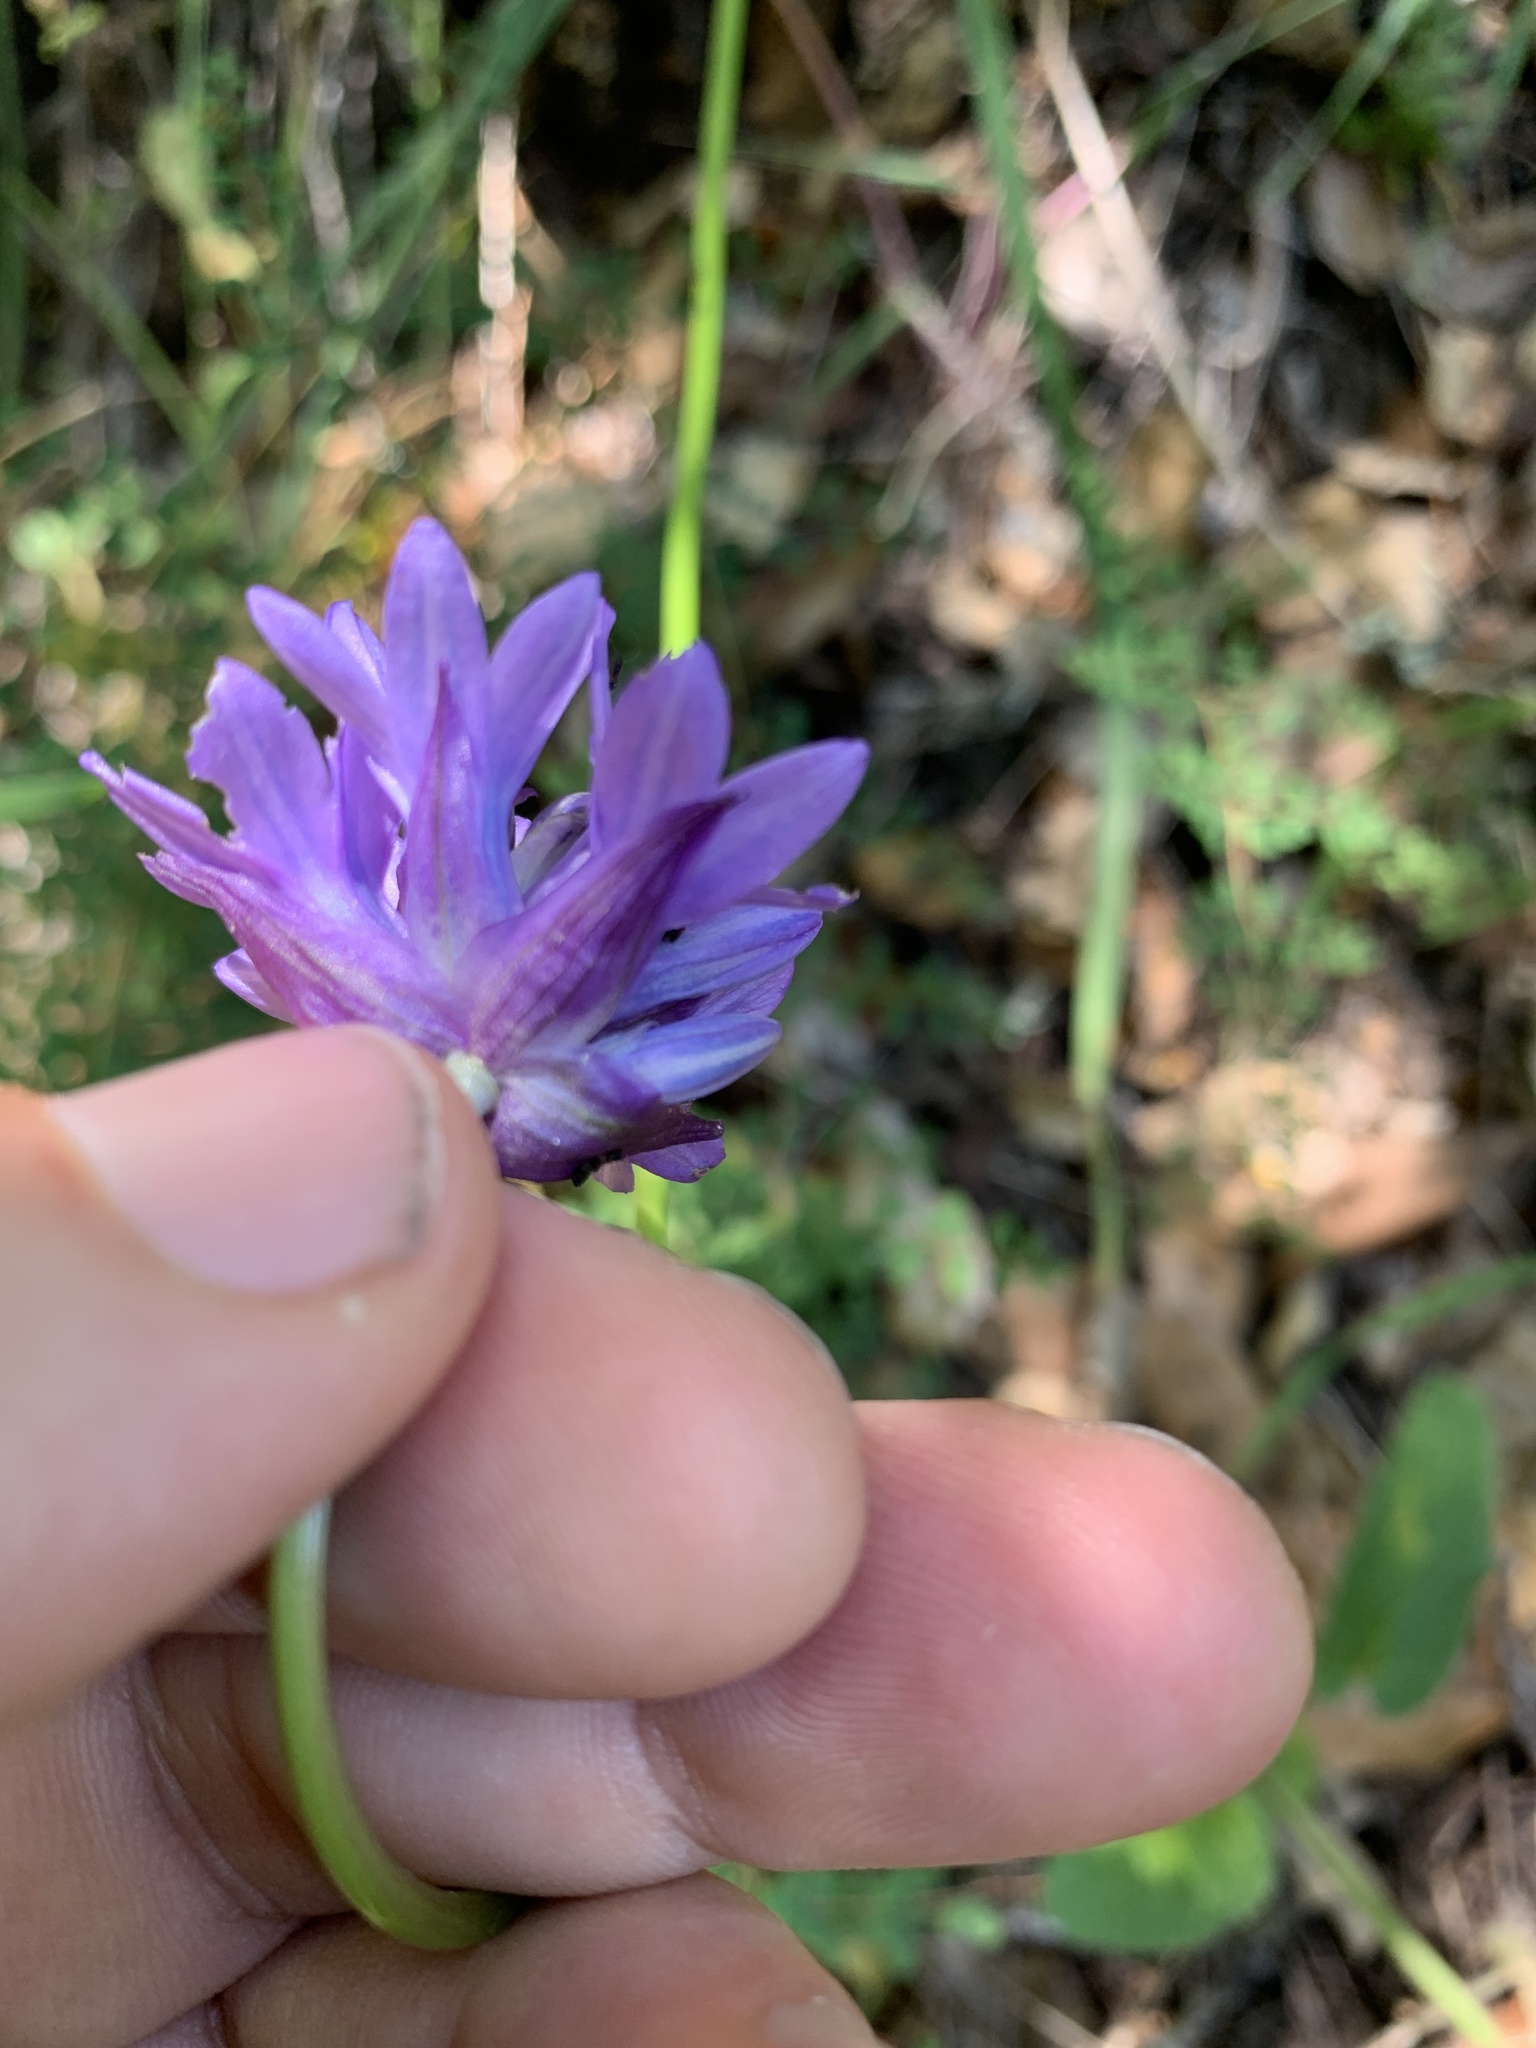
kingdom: Plantae
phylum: Tracheophyta
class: Liliopsida
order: Asparagales
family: Asparagaceae
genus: Dichelostemma
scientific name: Dichelostemma congestum
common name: Fork-tooth ookow
